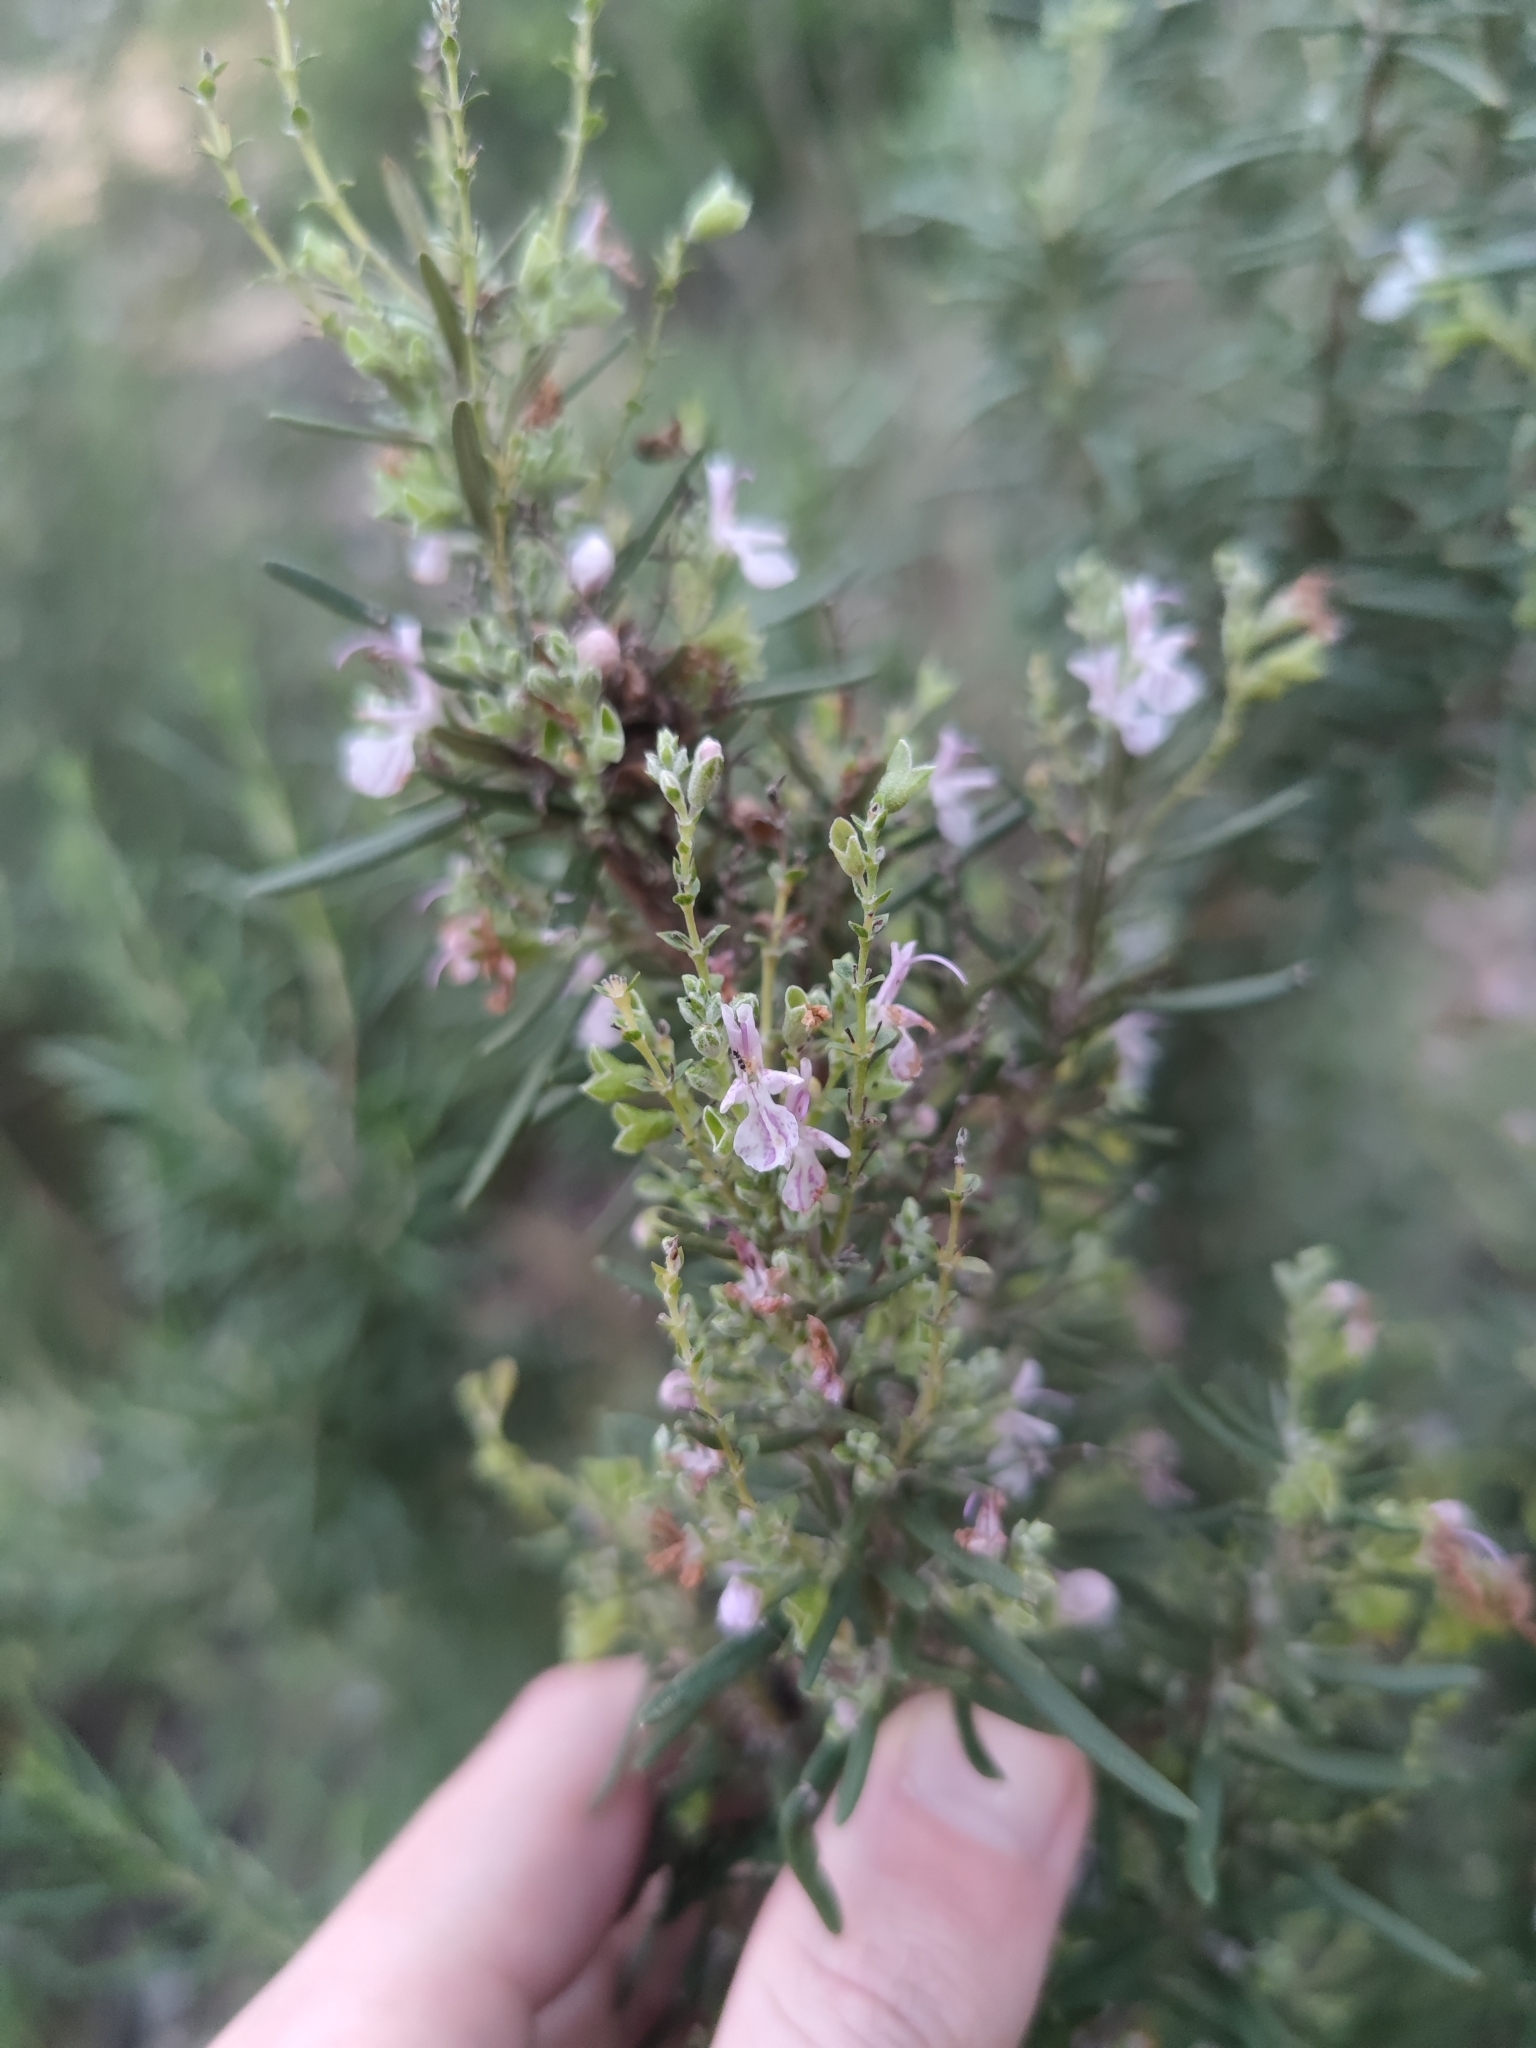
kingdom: Plantae
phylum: Tracheophyta
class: Magnoliopsida
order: Lamiales
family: Lamiaceae
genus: Salvia
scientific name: Salvia rosmarinus
